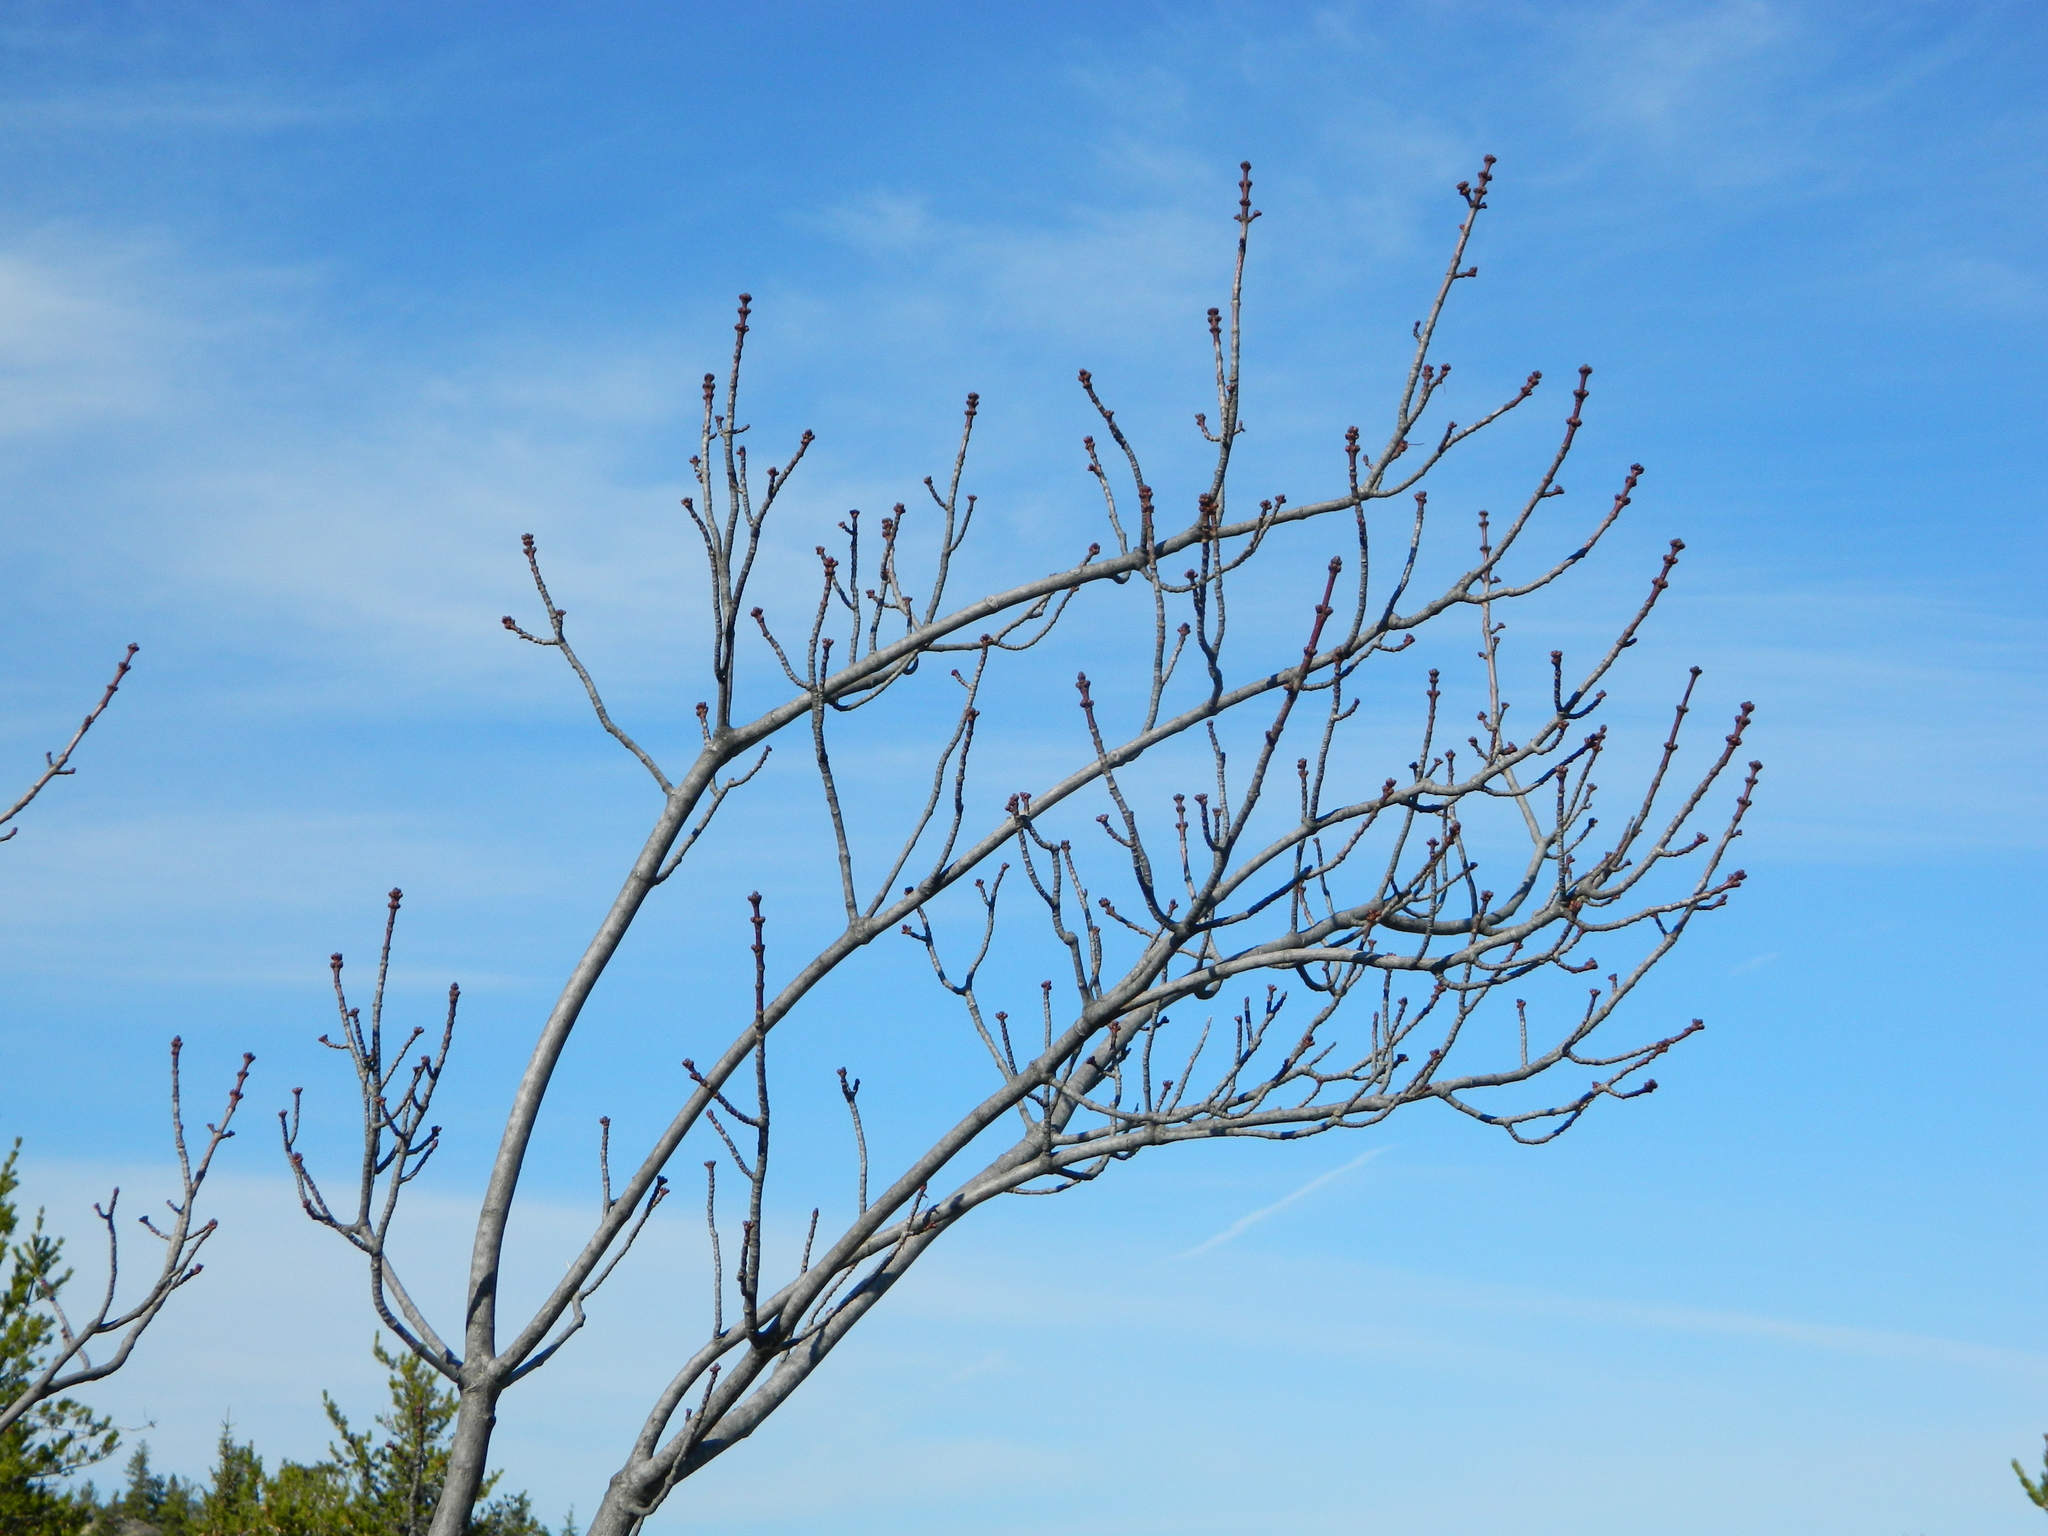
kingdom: Plantae
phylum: Tracheophyta
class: Magnoliopsida
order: Sapindales
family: Sapindaceae
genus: Acer
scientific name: Acer rubrum
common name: Red maple
